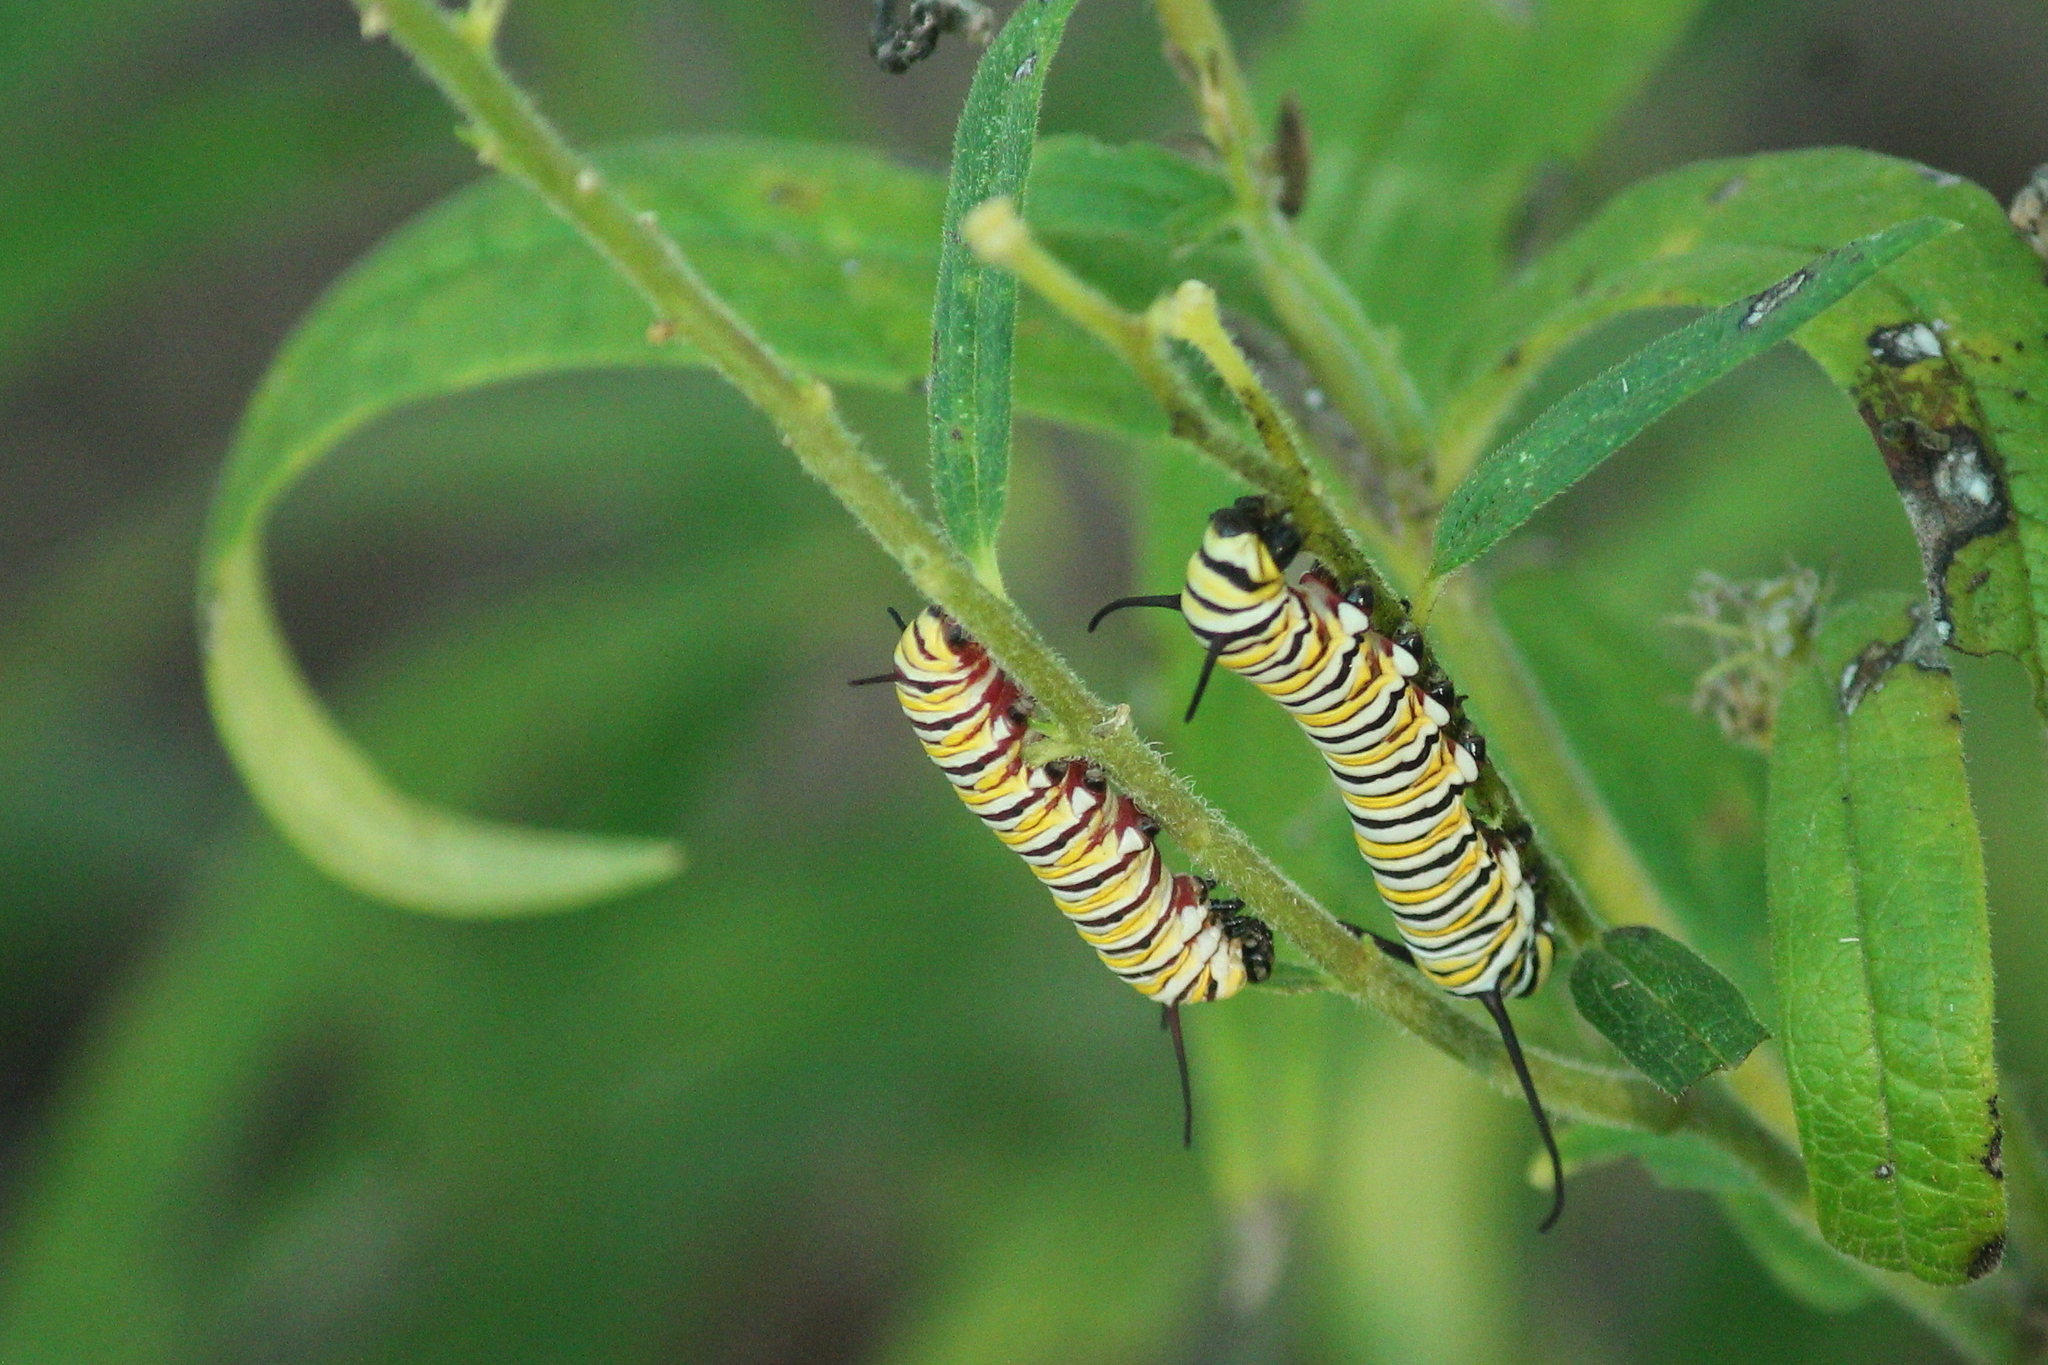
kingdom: Animalia
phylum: Arthropoda
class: Insecta
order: Lepidoptera
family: Nymphalidae
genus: Danaus
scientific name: Danaus plexippus
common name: Monarch
